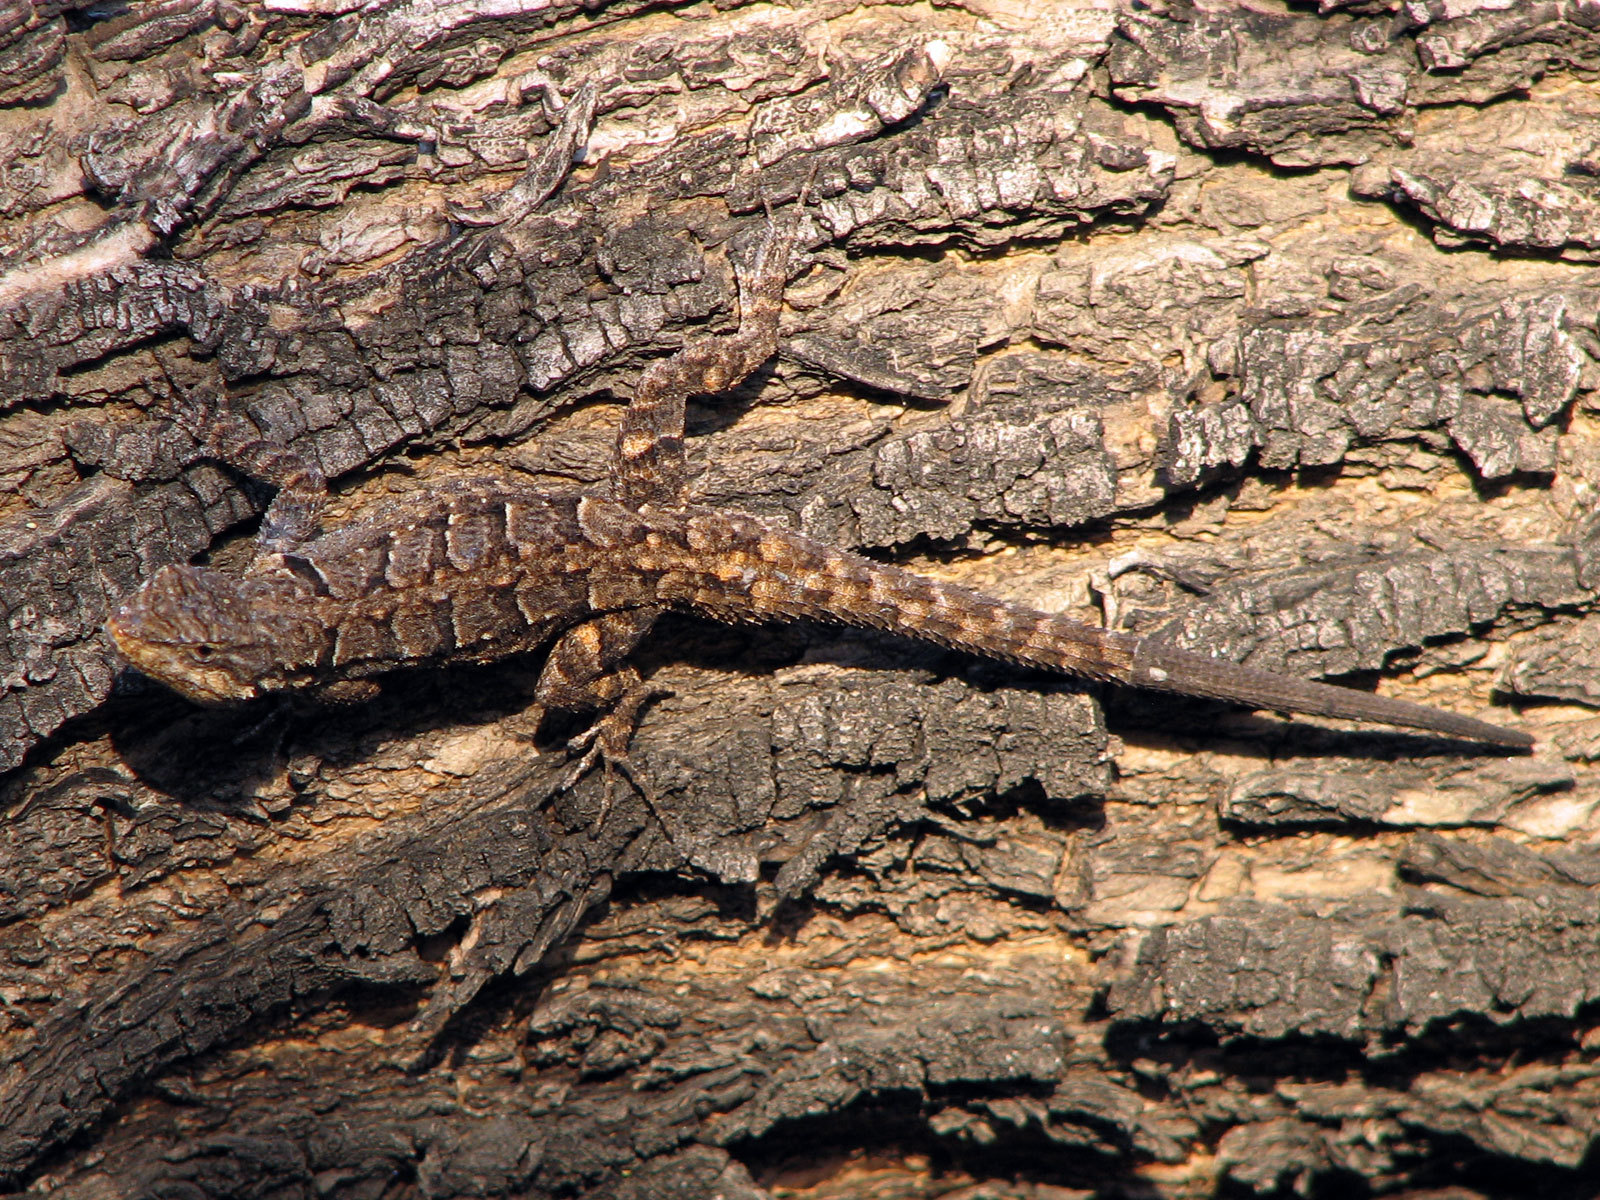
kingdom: Animalia
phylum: Chordata
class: Squamata
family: Phrynosomatidae
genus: Urosaurus
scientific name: Urosaurus ornatus
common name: Ornate tree lizard
